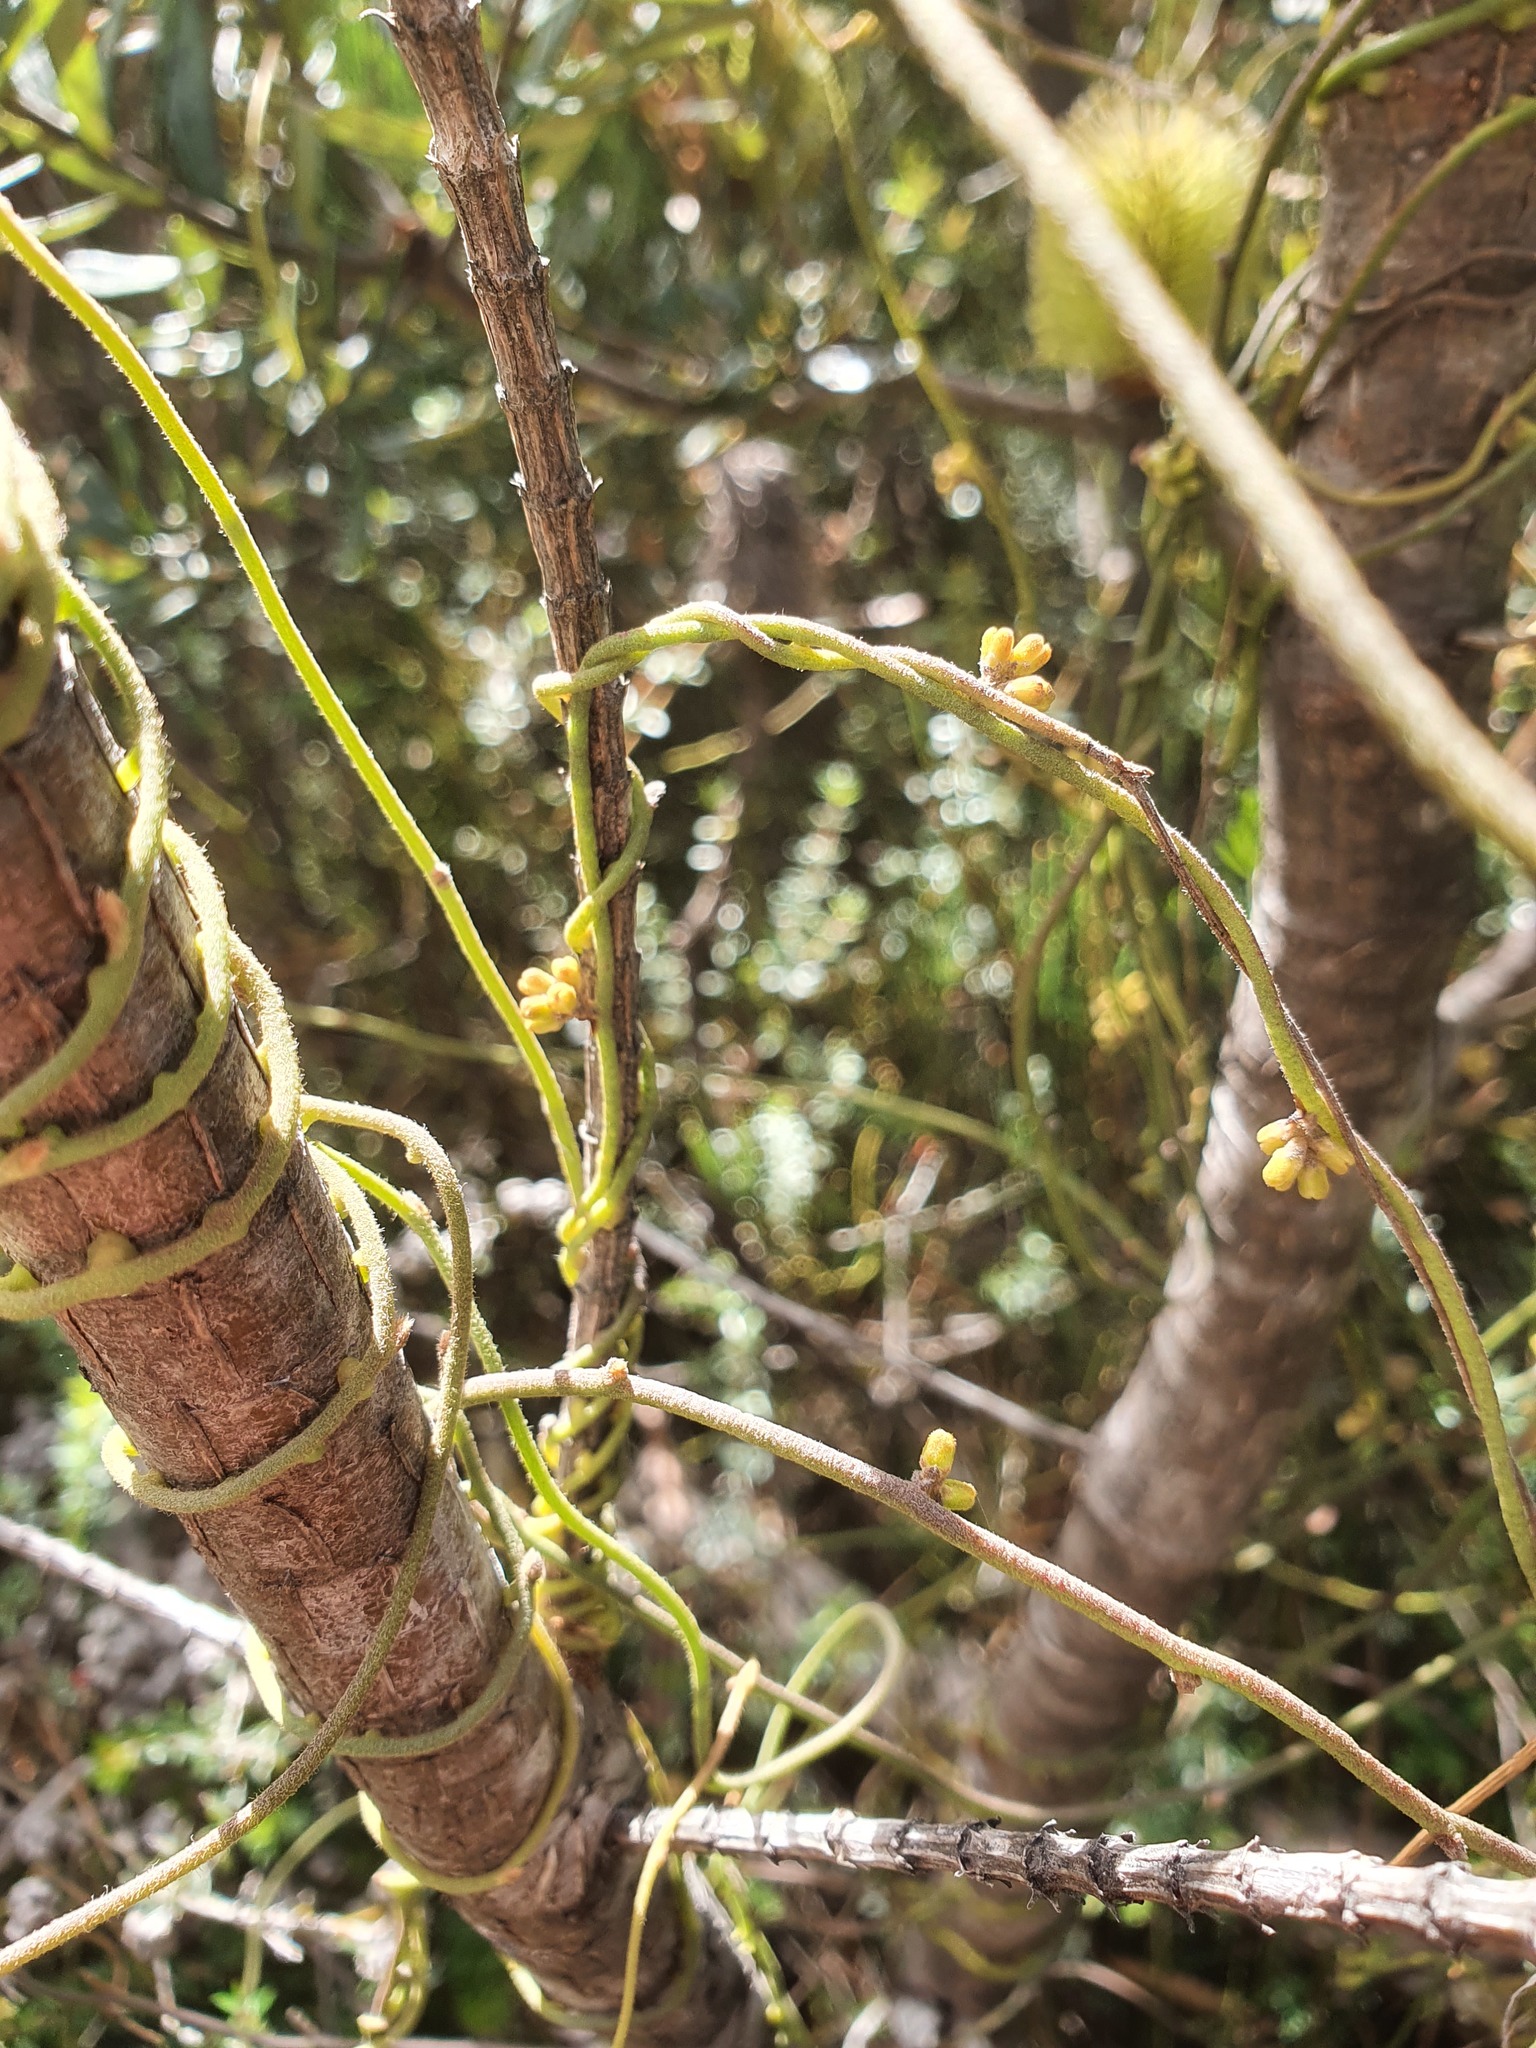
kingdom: Plantae
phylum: Tracheophyta
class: Magnoliopsida
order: Laurales
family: Lauraceae
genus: Cassytha
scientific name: Cassytha pubescens
